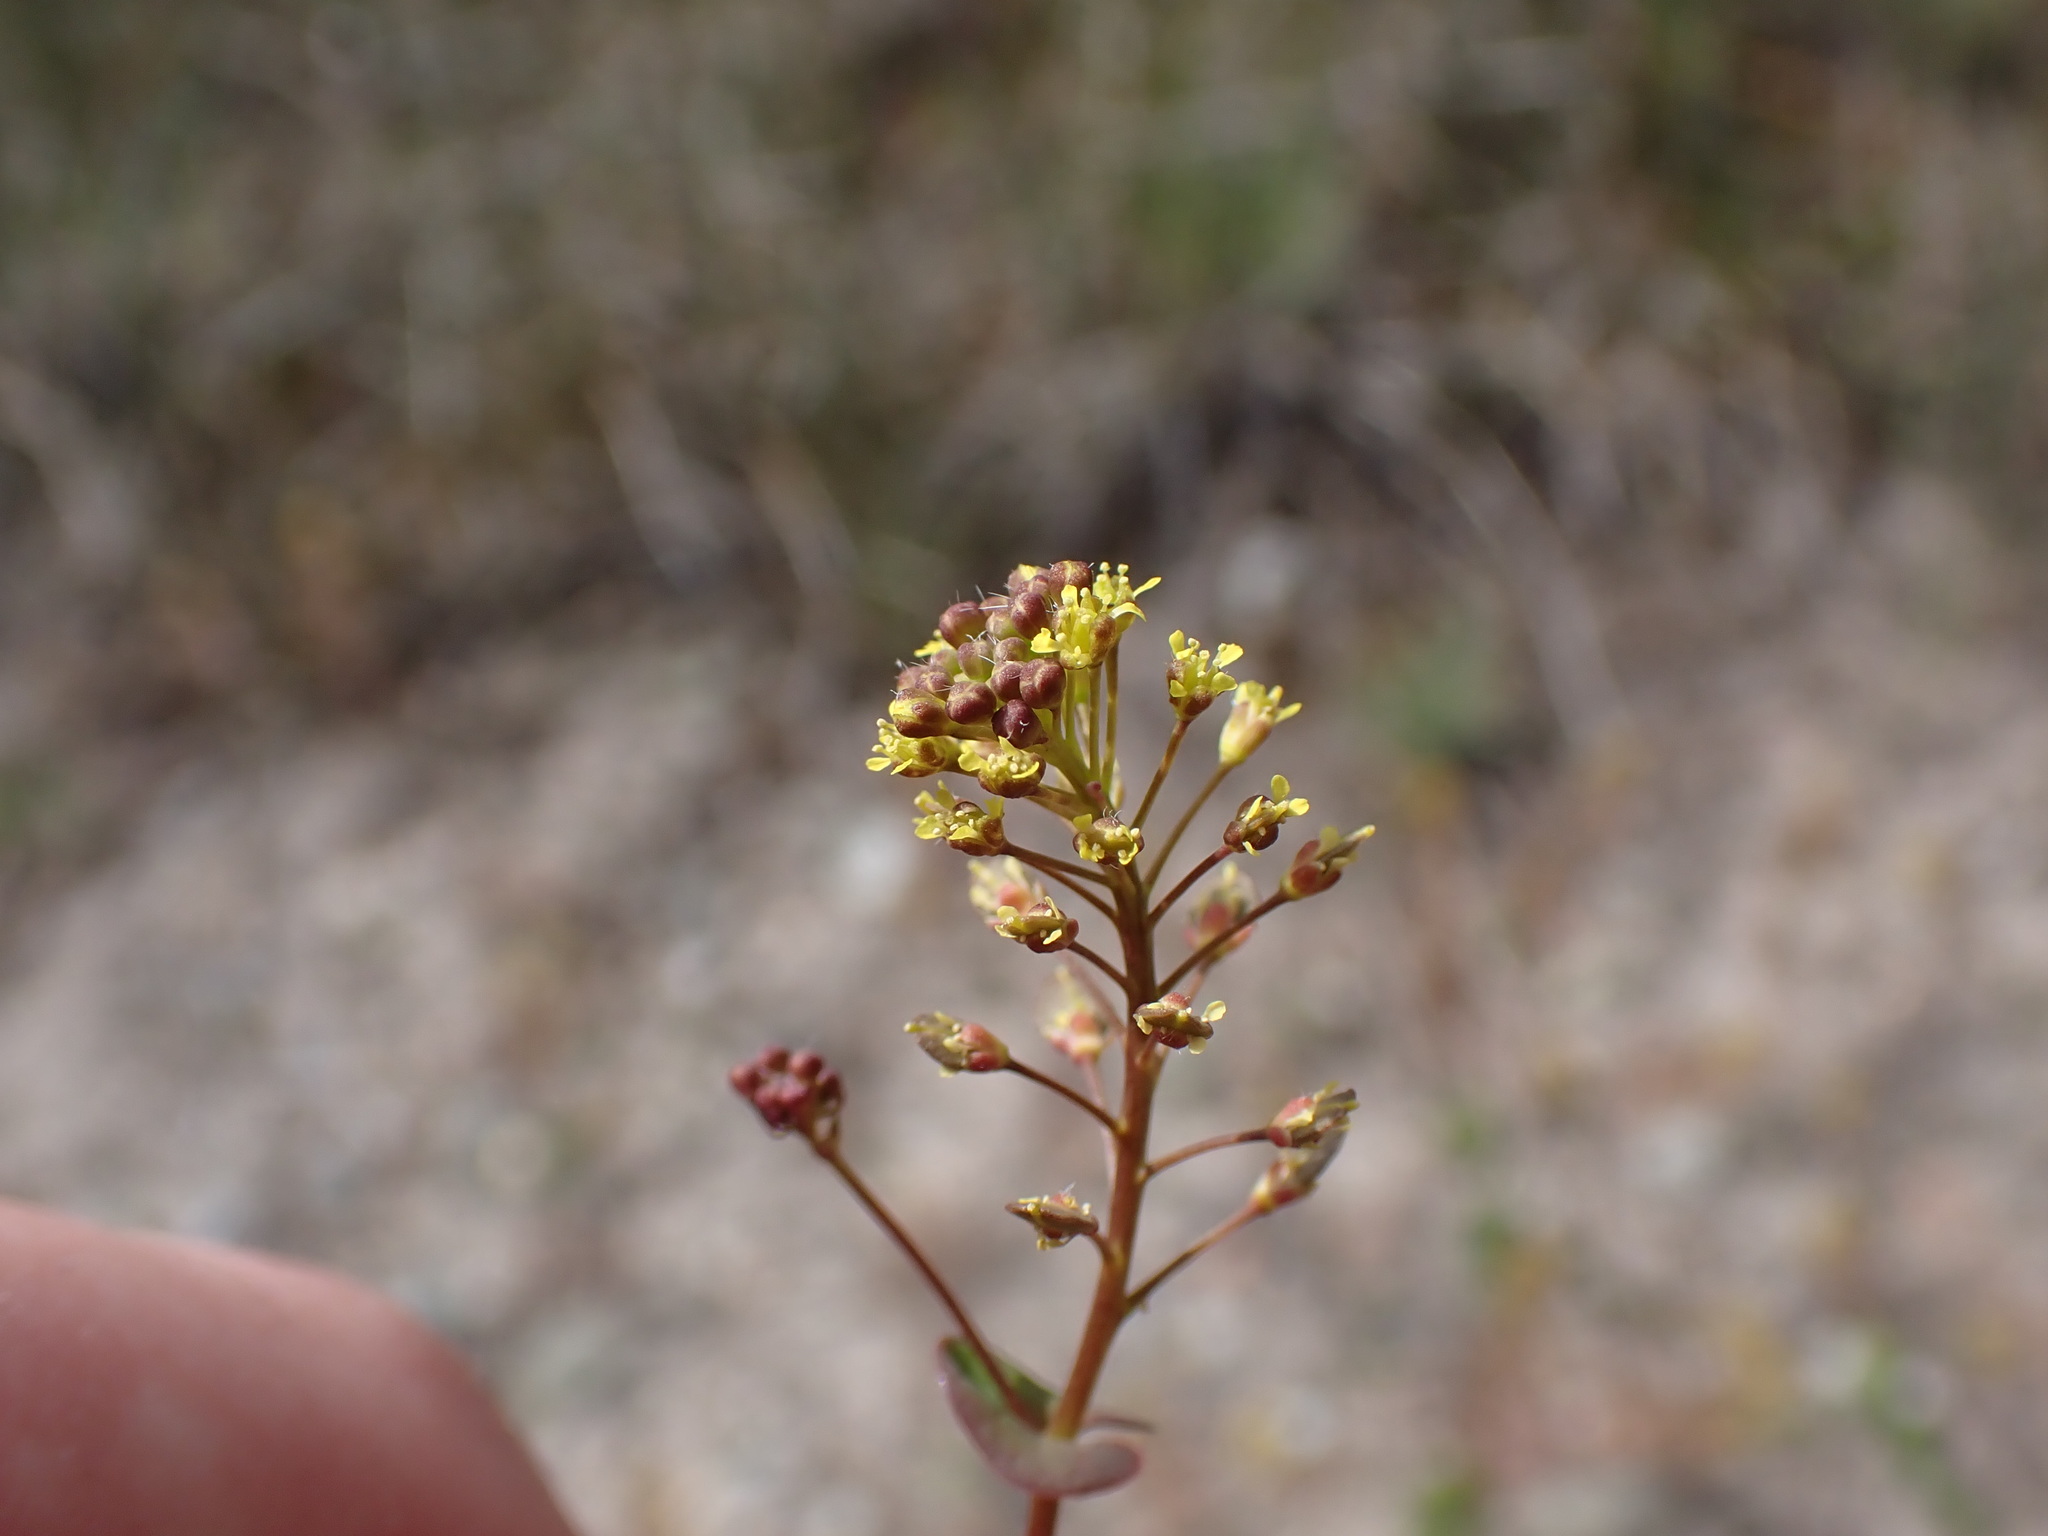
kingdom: Plantae
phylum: Tracheophyta
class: Magnoliopsida
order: Brassicales
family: Brassicaceae
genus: Lepidium
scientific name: Lepidium perfoliatum
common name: Perfoliate pepperwort
